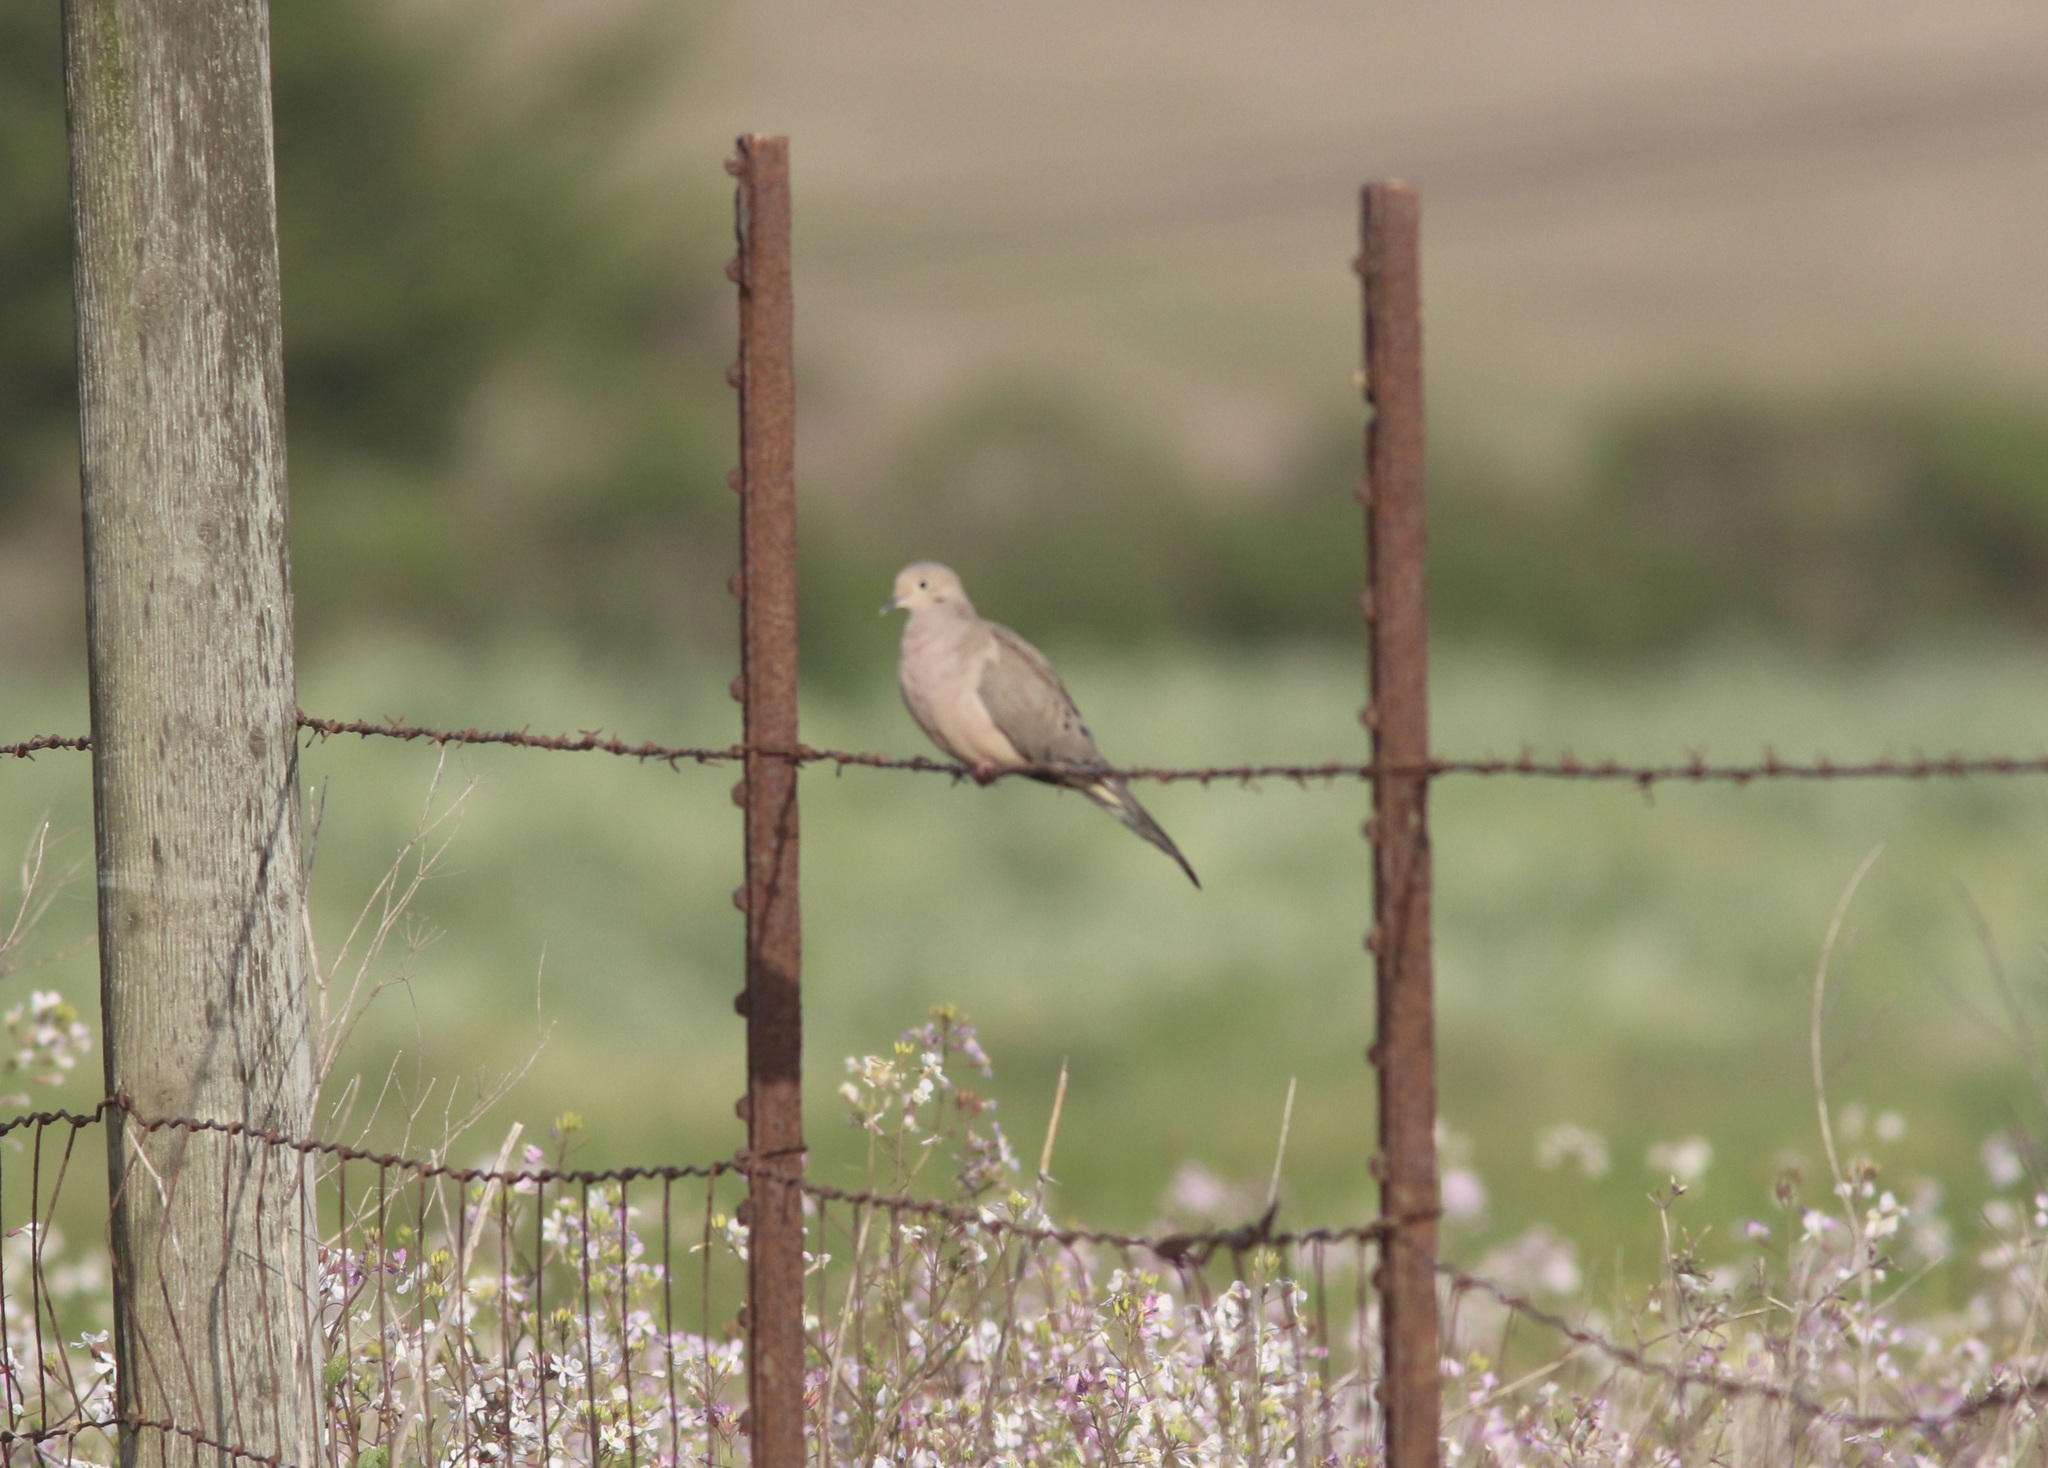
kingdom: Animalia
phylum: Chordata
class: Aves
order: Columbiformes
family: Columbidae
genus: Zenaida
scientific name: Zenaida macroura
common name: Mourning dove
